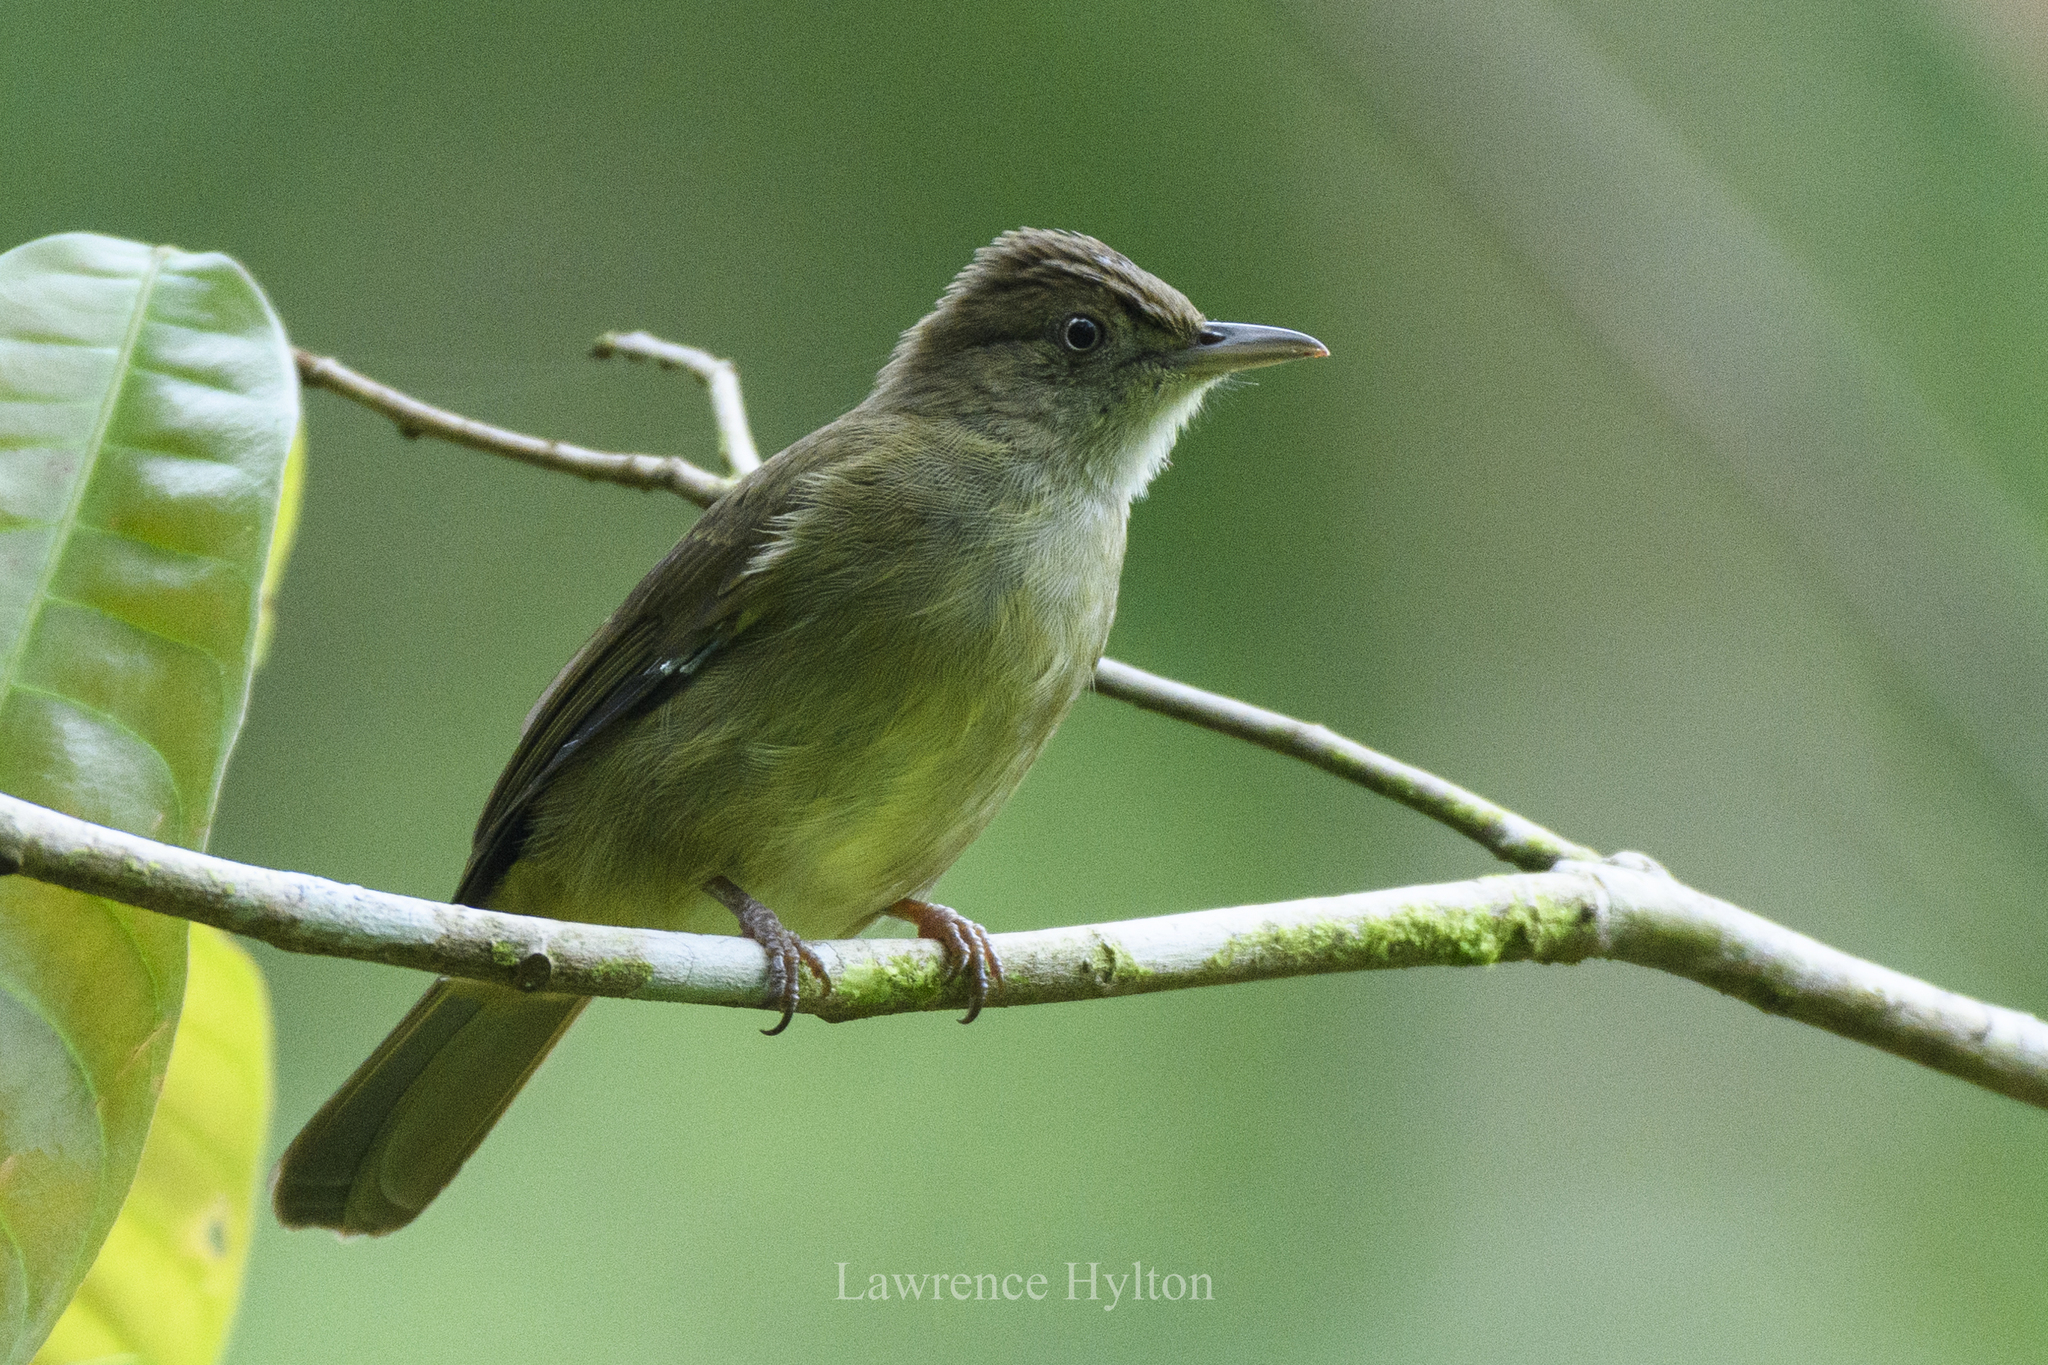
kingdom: Animalia
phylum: Chordata
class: Aves
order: Passeriformes
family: Pycnonotidae
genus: Iole
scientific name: Iole crypta
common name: Buff-vented bulbul
